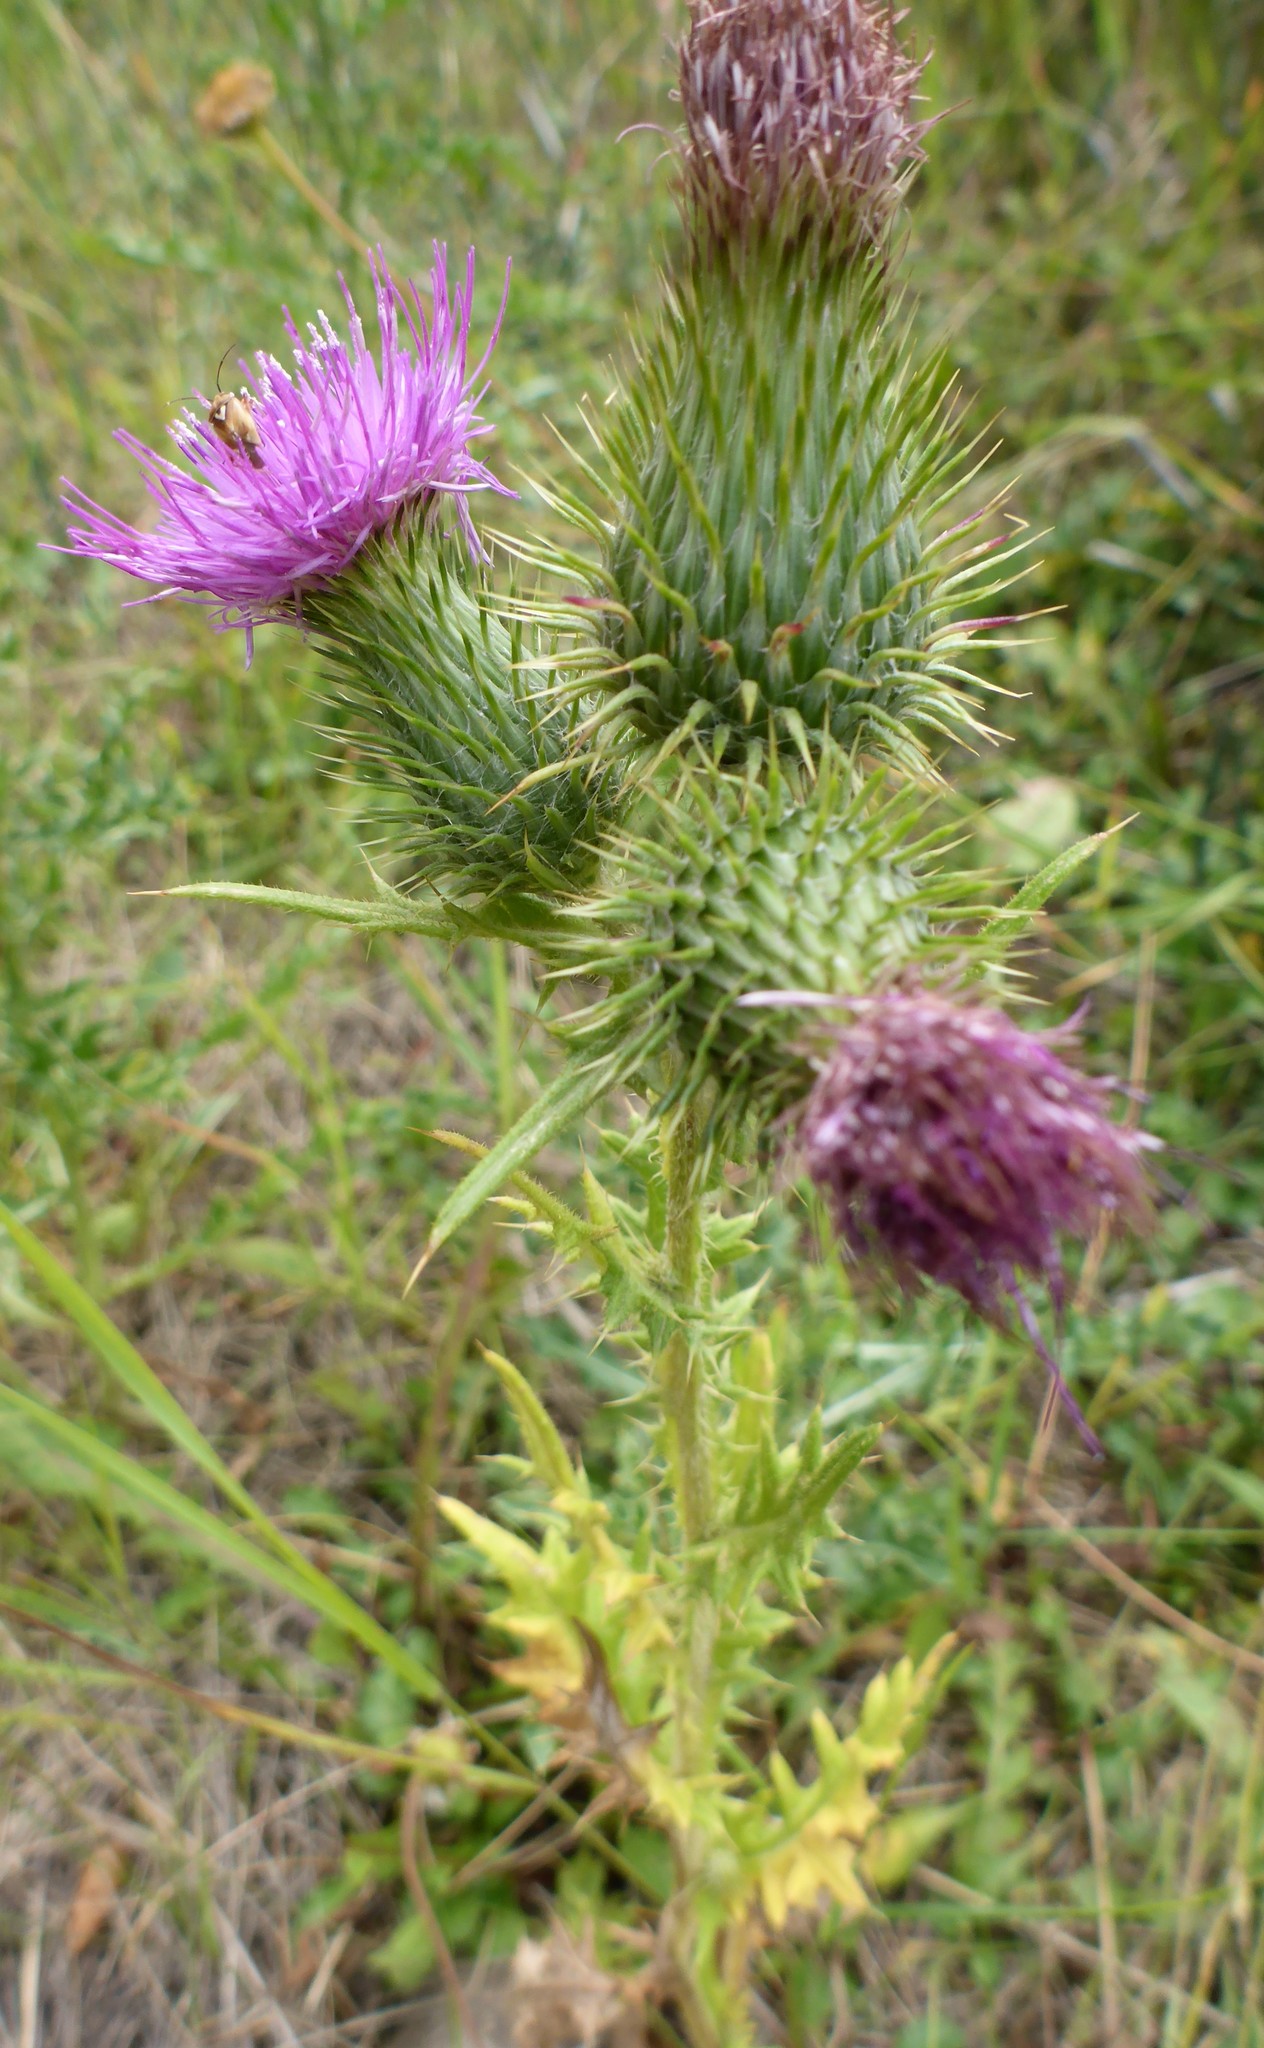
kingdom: Plantae
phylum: Tracheophyta
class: Magnoliopsida
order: Asterales
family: Asteraceae
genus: Cirsium
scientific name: Cirsium vulgare
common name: Bull thistle
